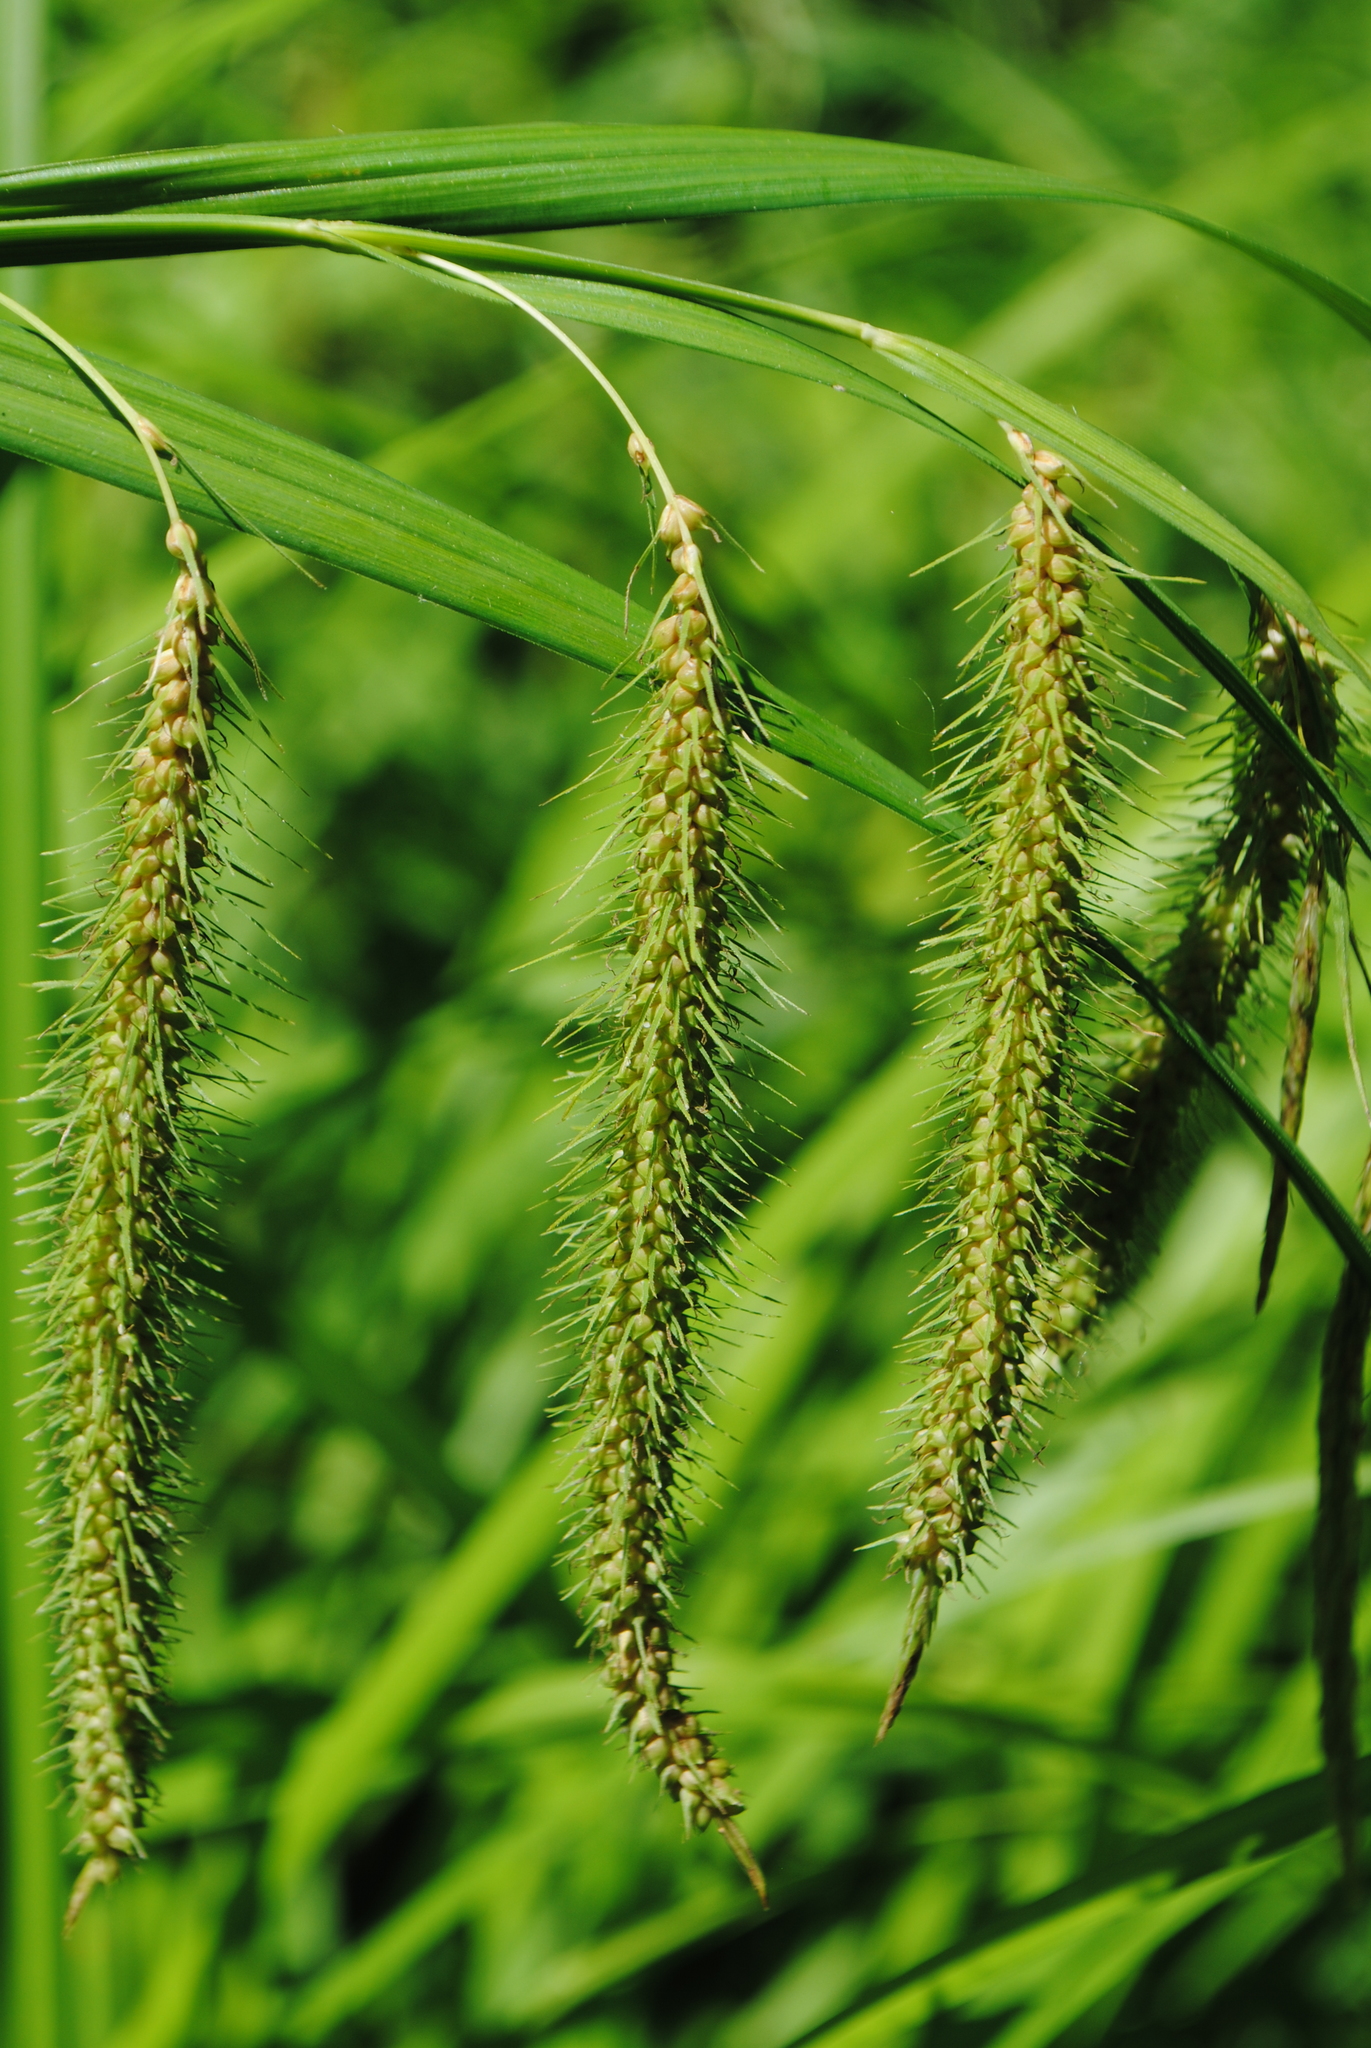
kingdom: Plantae
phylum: Tracheophyta
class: Liliopsida
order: Poales
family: Cyperaceae
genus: Carex
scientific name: Carex crinita
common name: Fringed sedge
